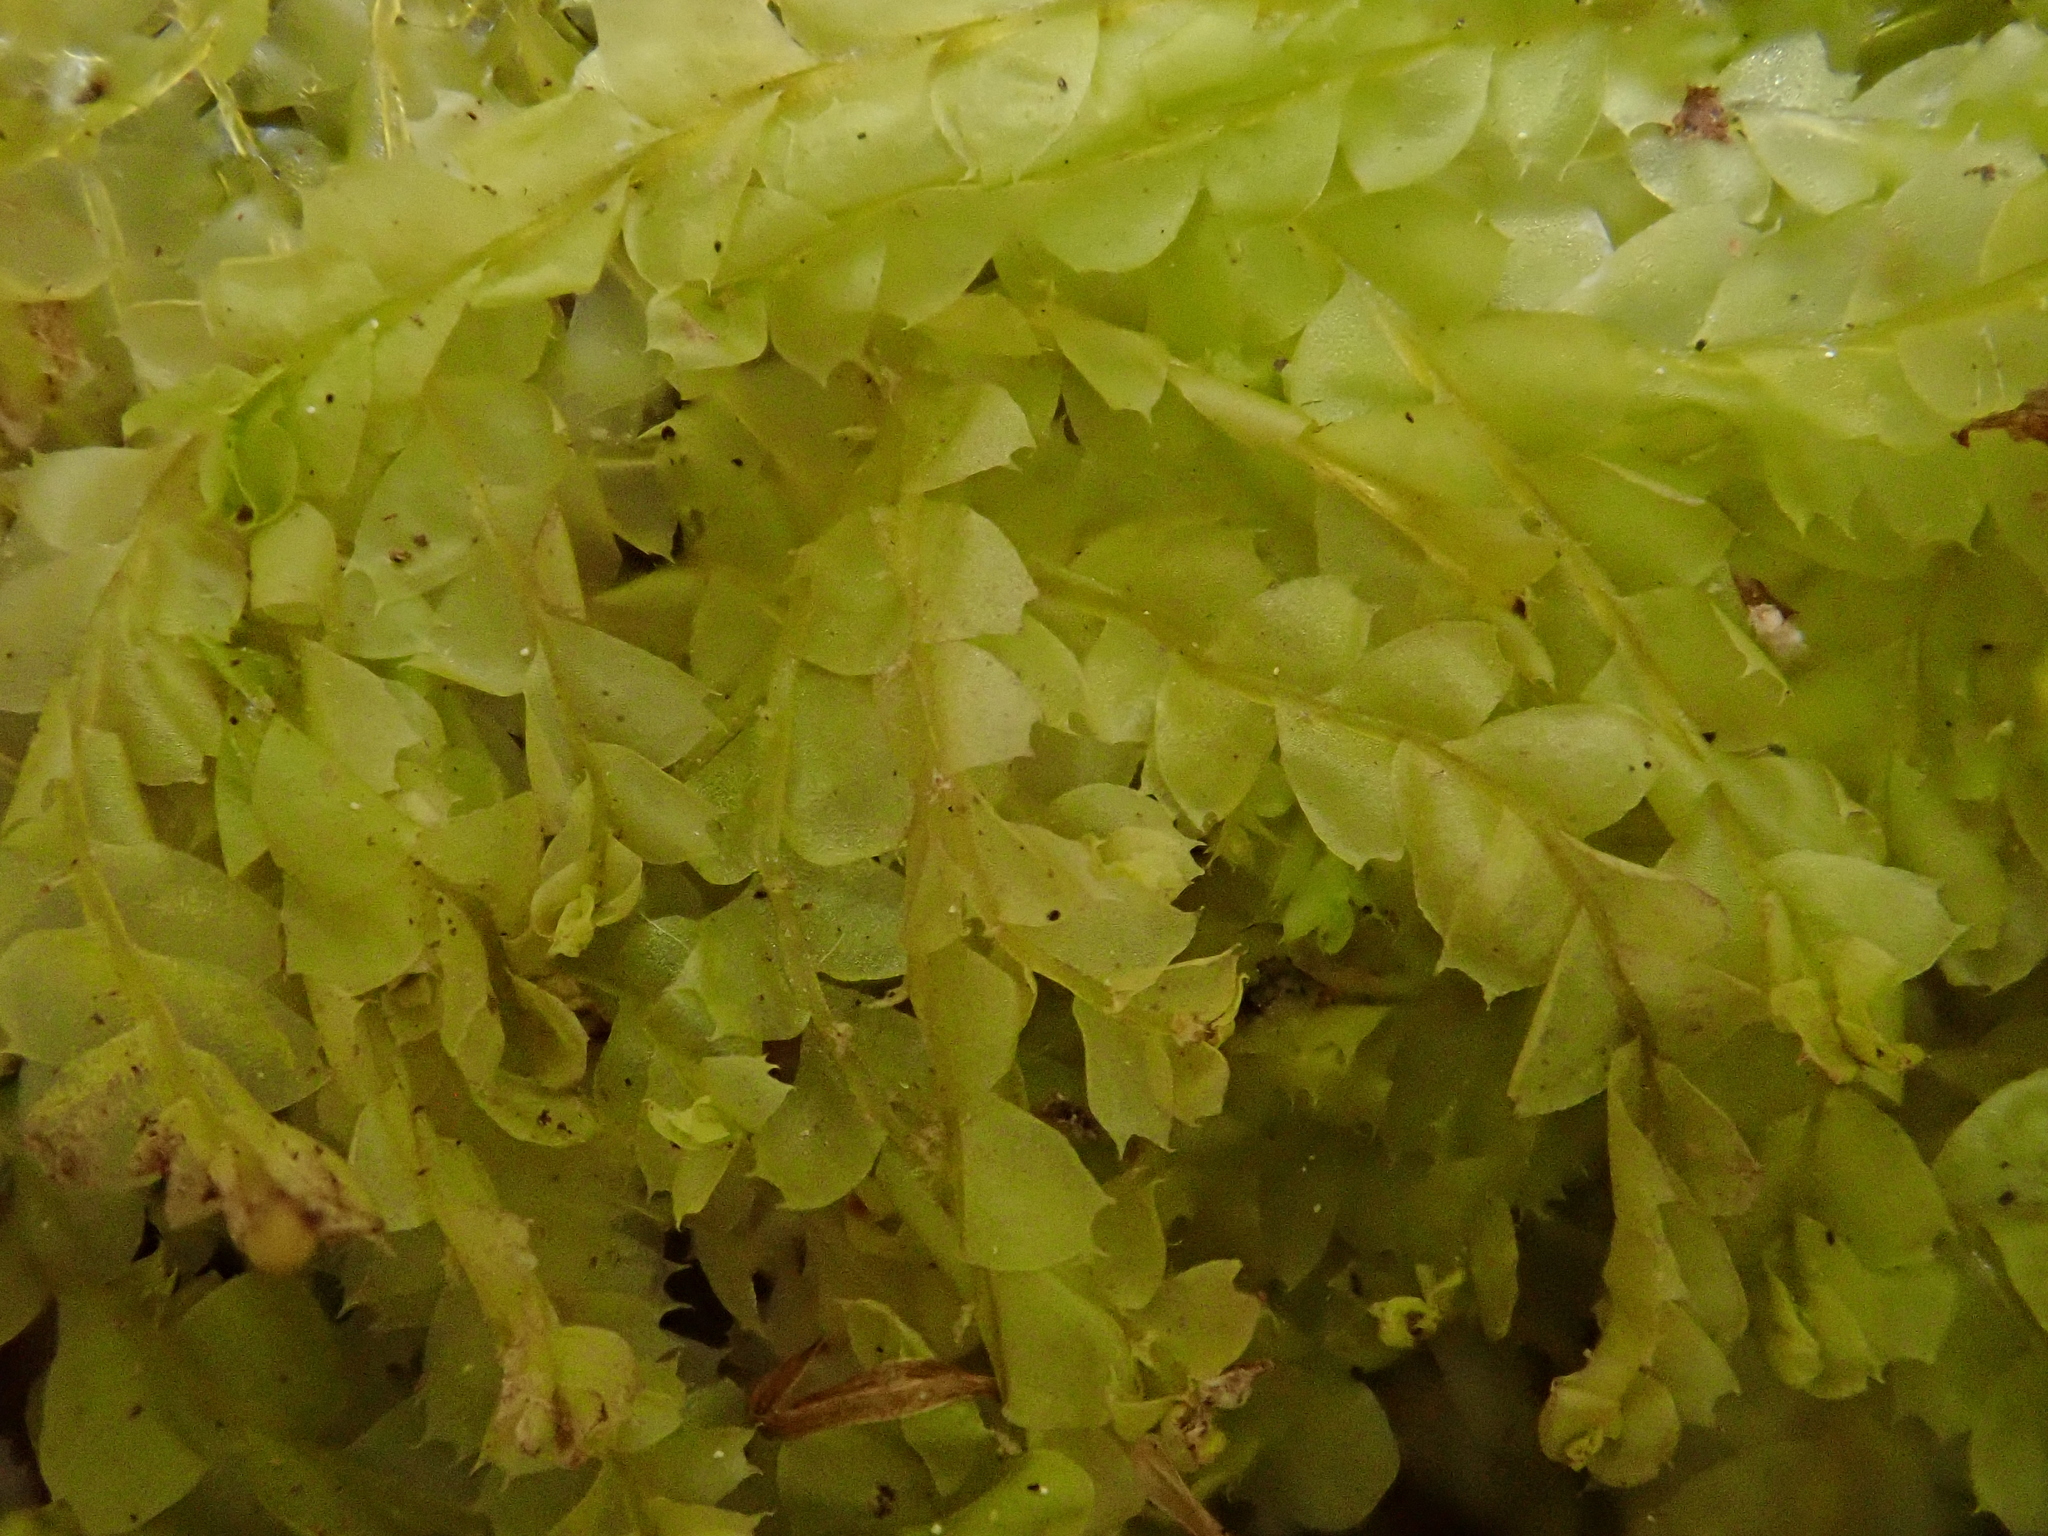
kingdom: Plantae
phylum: Marchantiophyta
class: Jungermanniopsida
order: Jungermanniales
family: Lophocoleaceae
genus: Lophocolea
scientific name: Lophocolea bidentata
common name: Bifid crestwort
